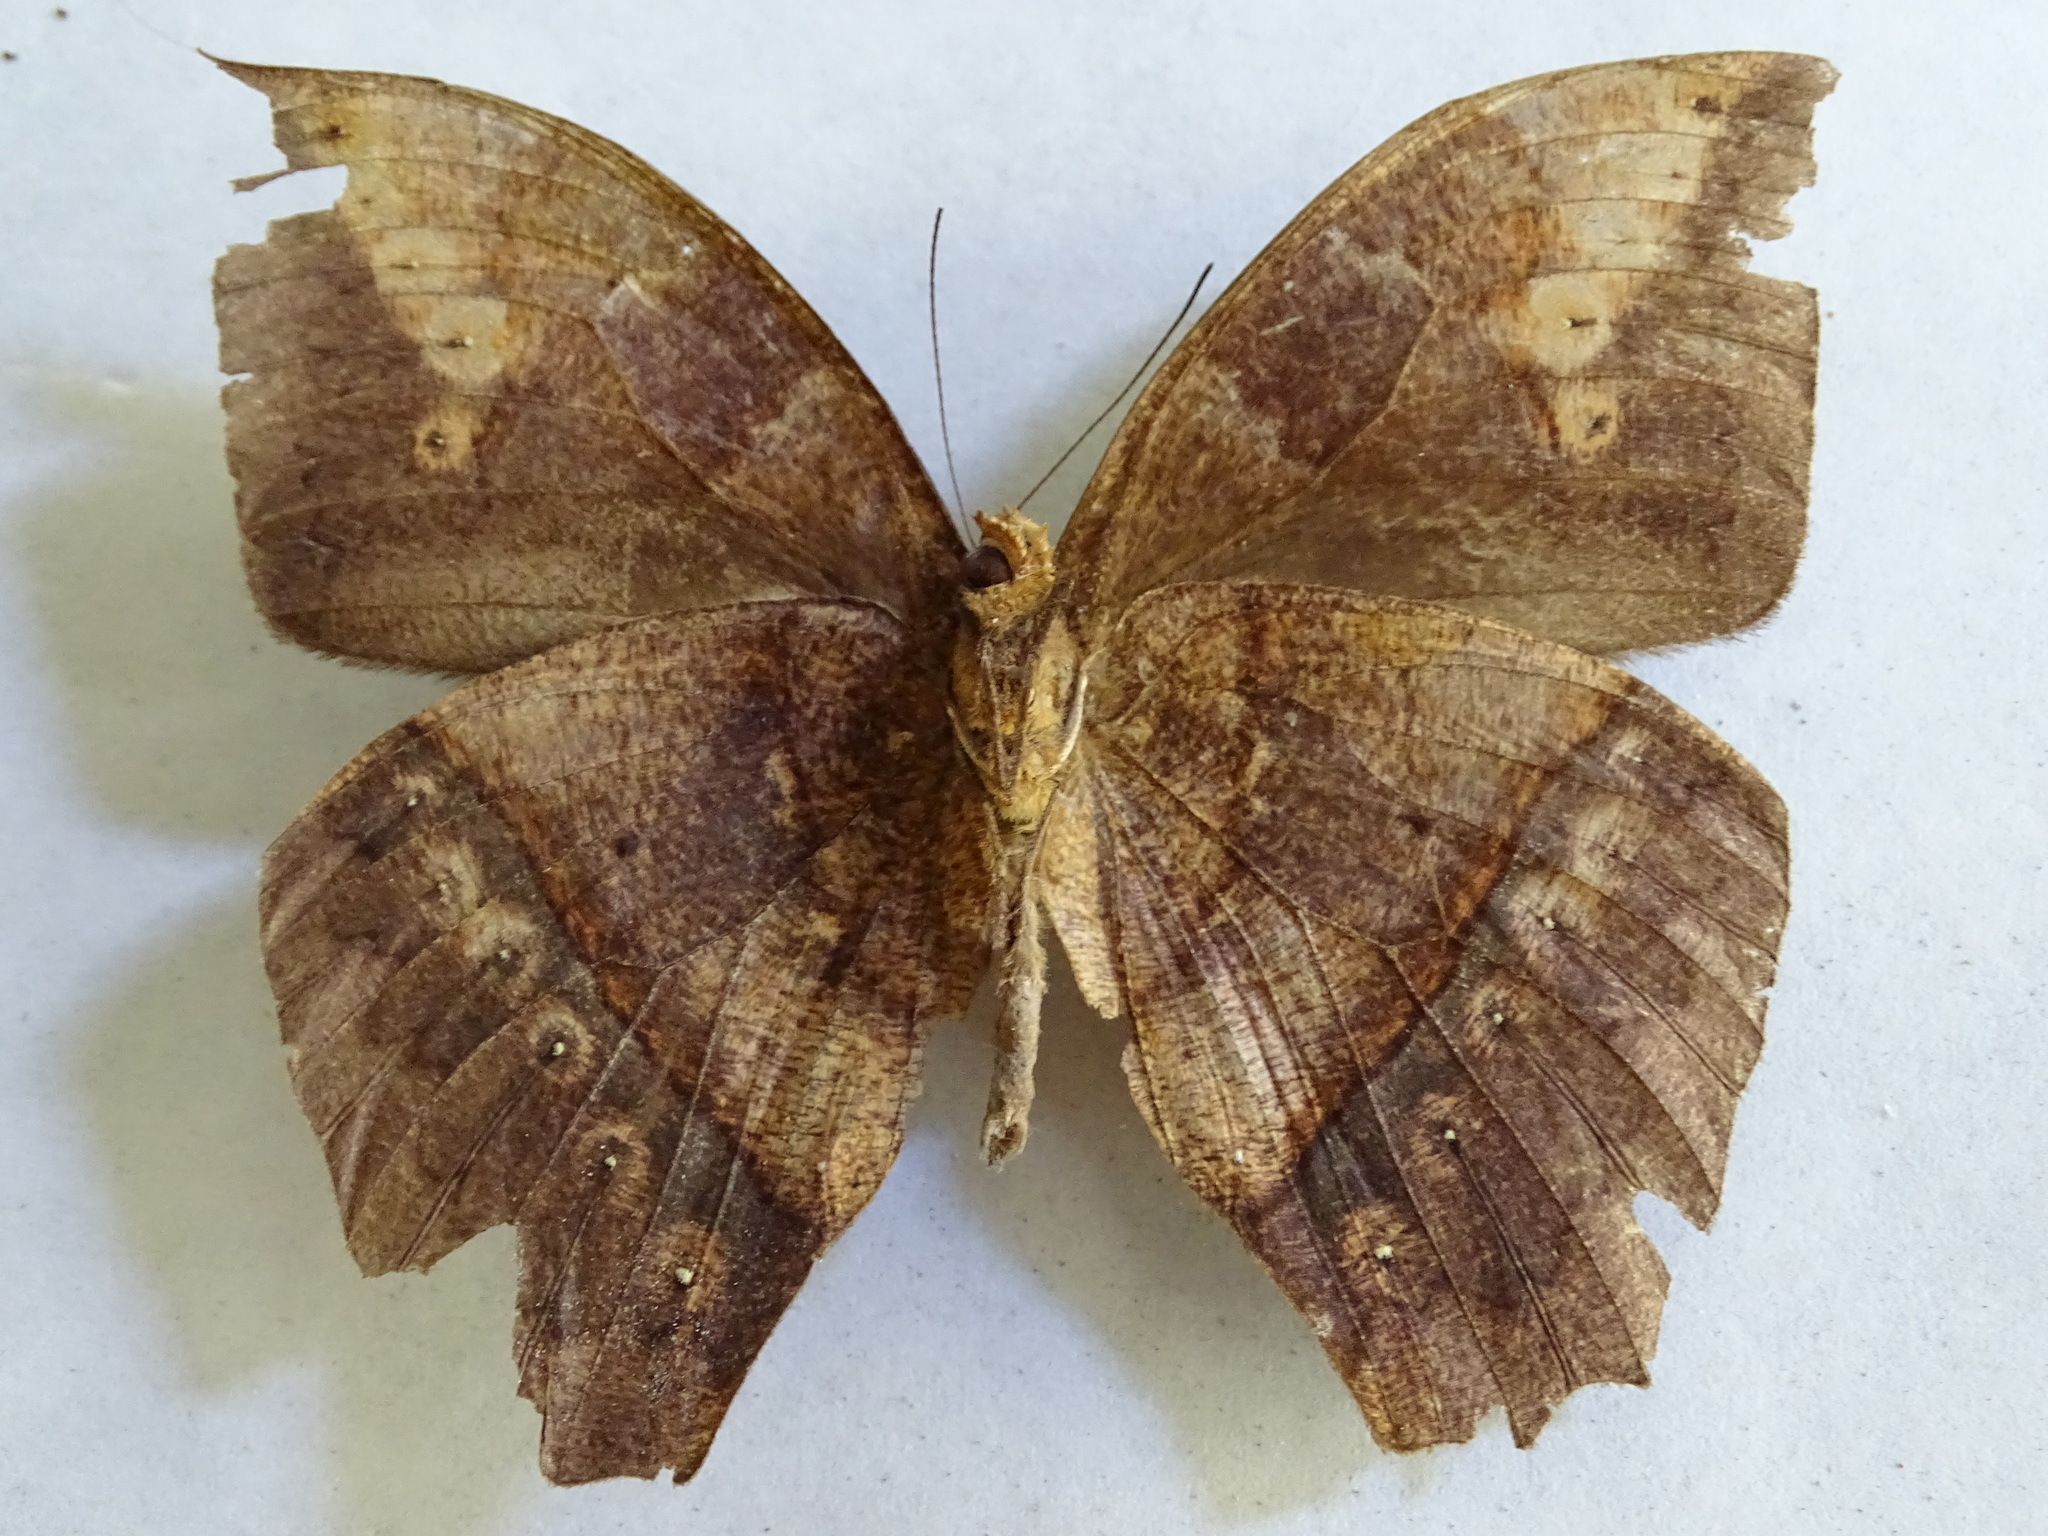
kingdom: Animalia
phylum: Arthropoda
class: Insecta
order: Lepidoptera
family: Nymphalidae
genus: Taygetis
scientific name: Taygetis mermeria
